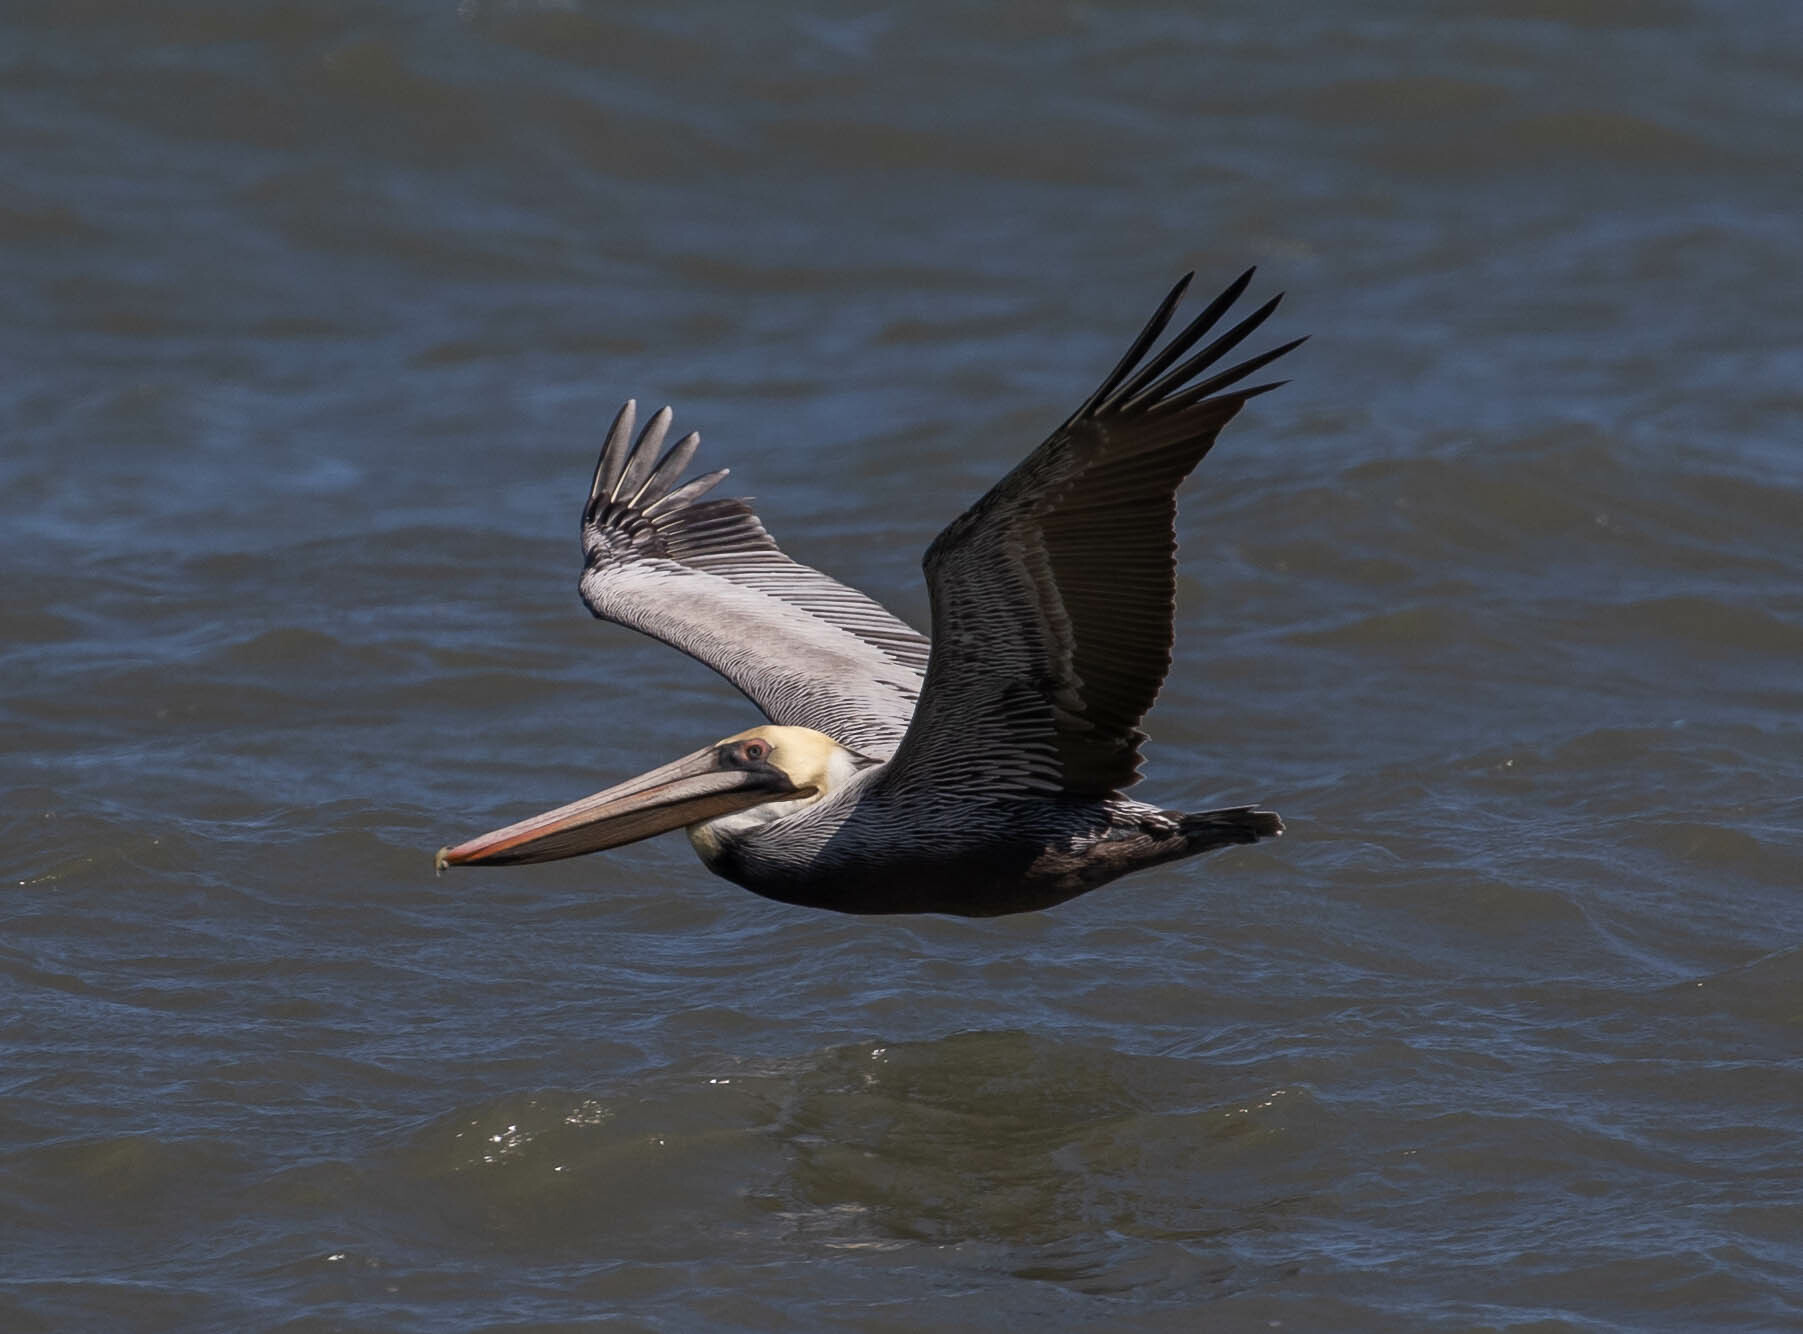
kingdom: Animalia
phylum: Chordata
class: Aves
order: Pelecaniformes
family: Pelecanidae
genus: Pelecanus
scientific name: Pelecanus occidentalis
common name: Brown pelican
